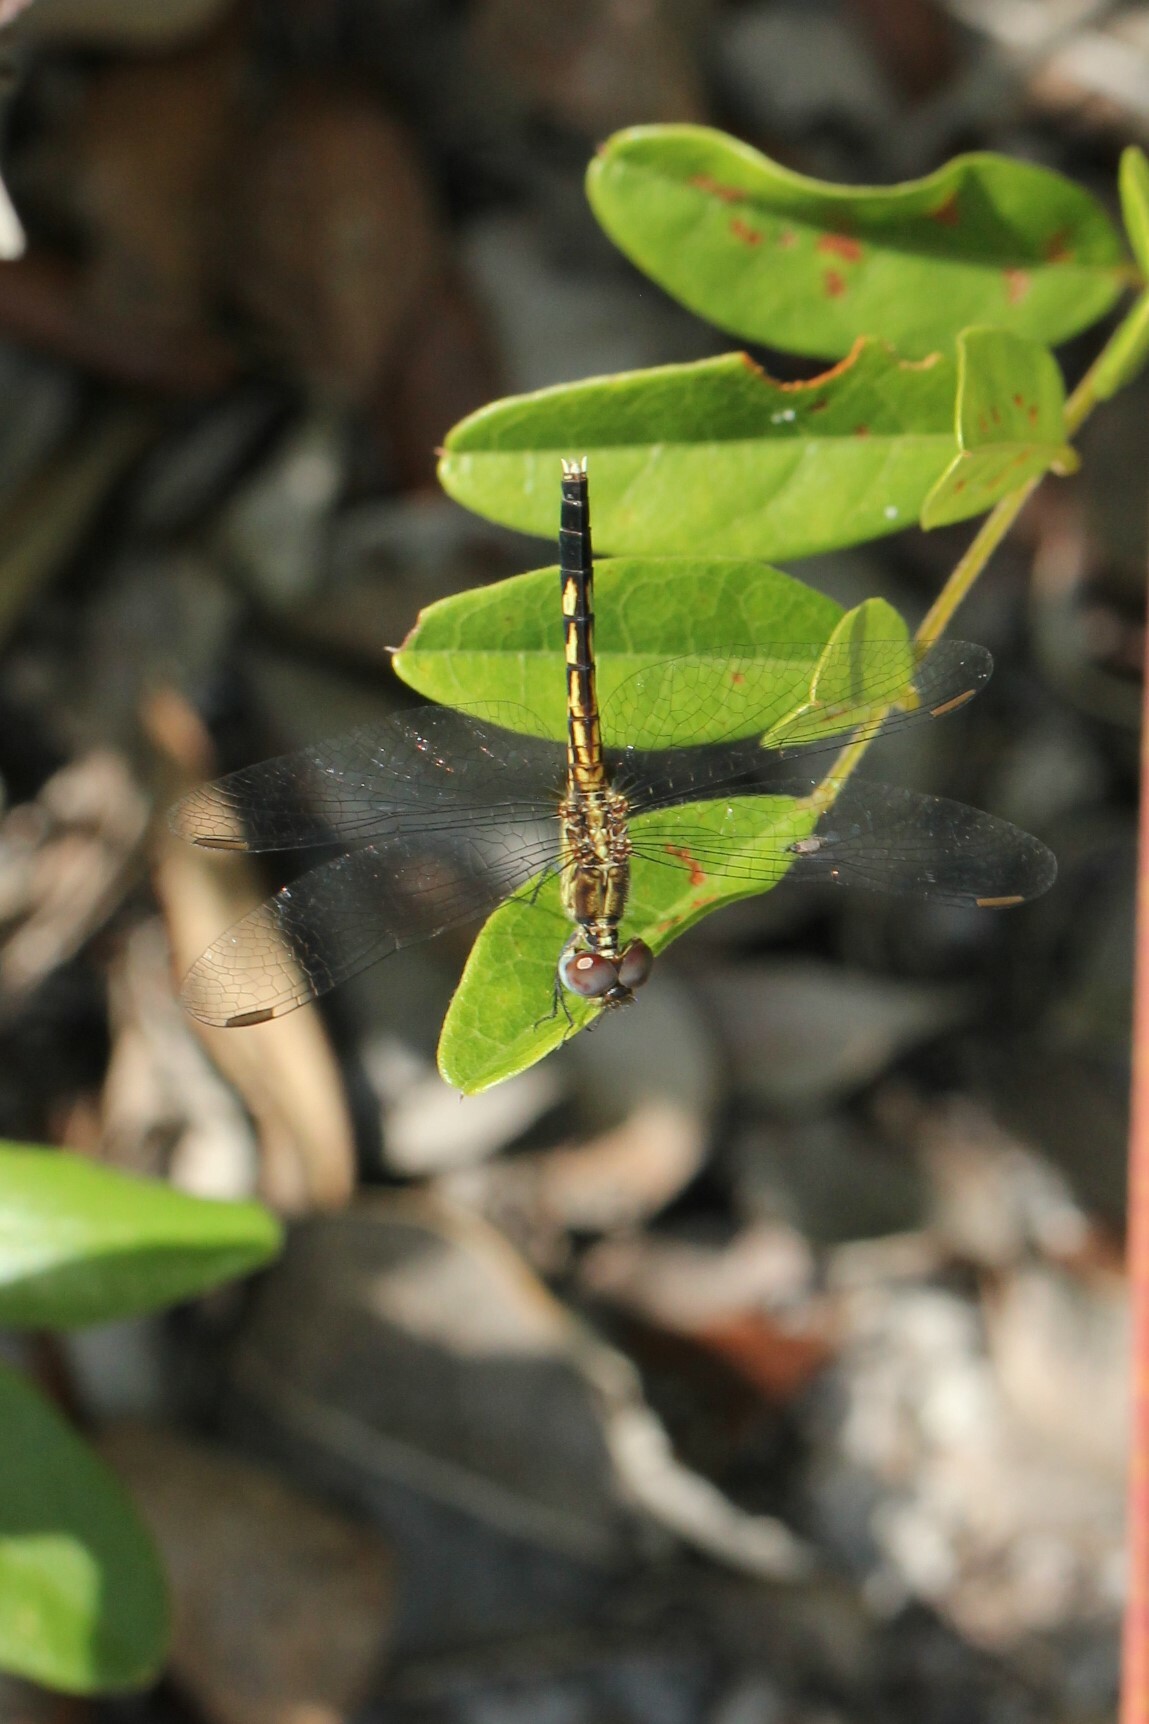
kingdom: Animalia
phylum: Arthropoda
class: Insecta
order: Odonata
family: Libellulidae
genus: Erythrodiplax
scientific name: Erythrodiplax minuscula
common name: Little blue dragonlet
